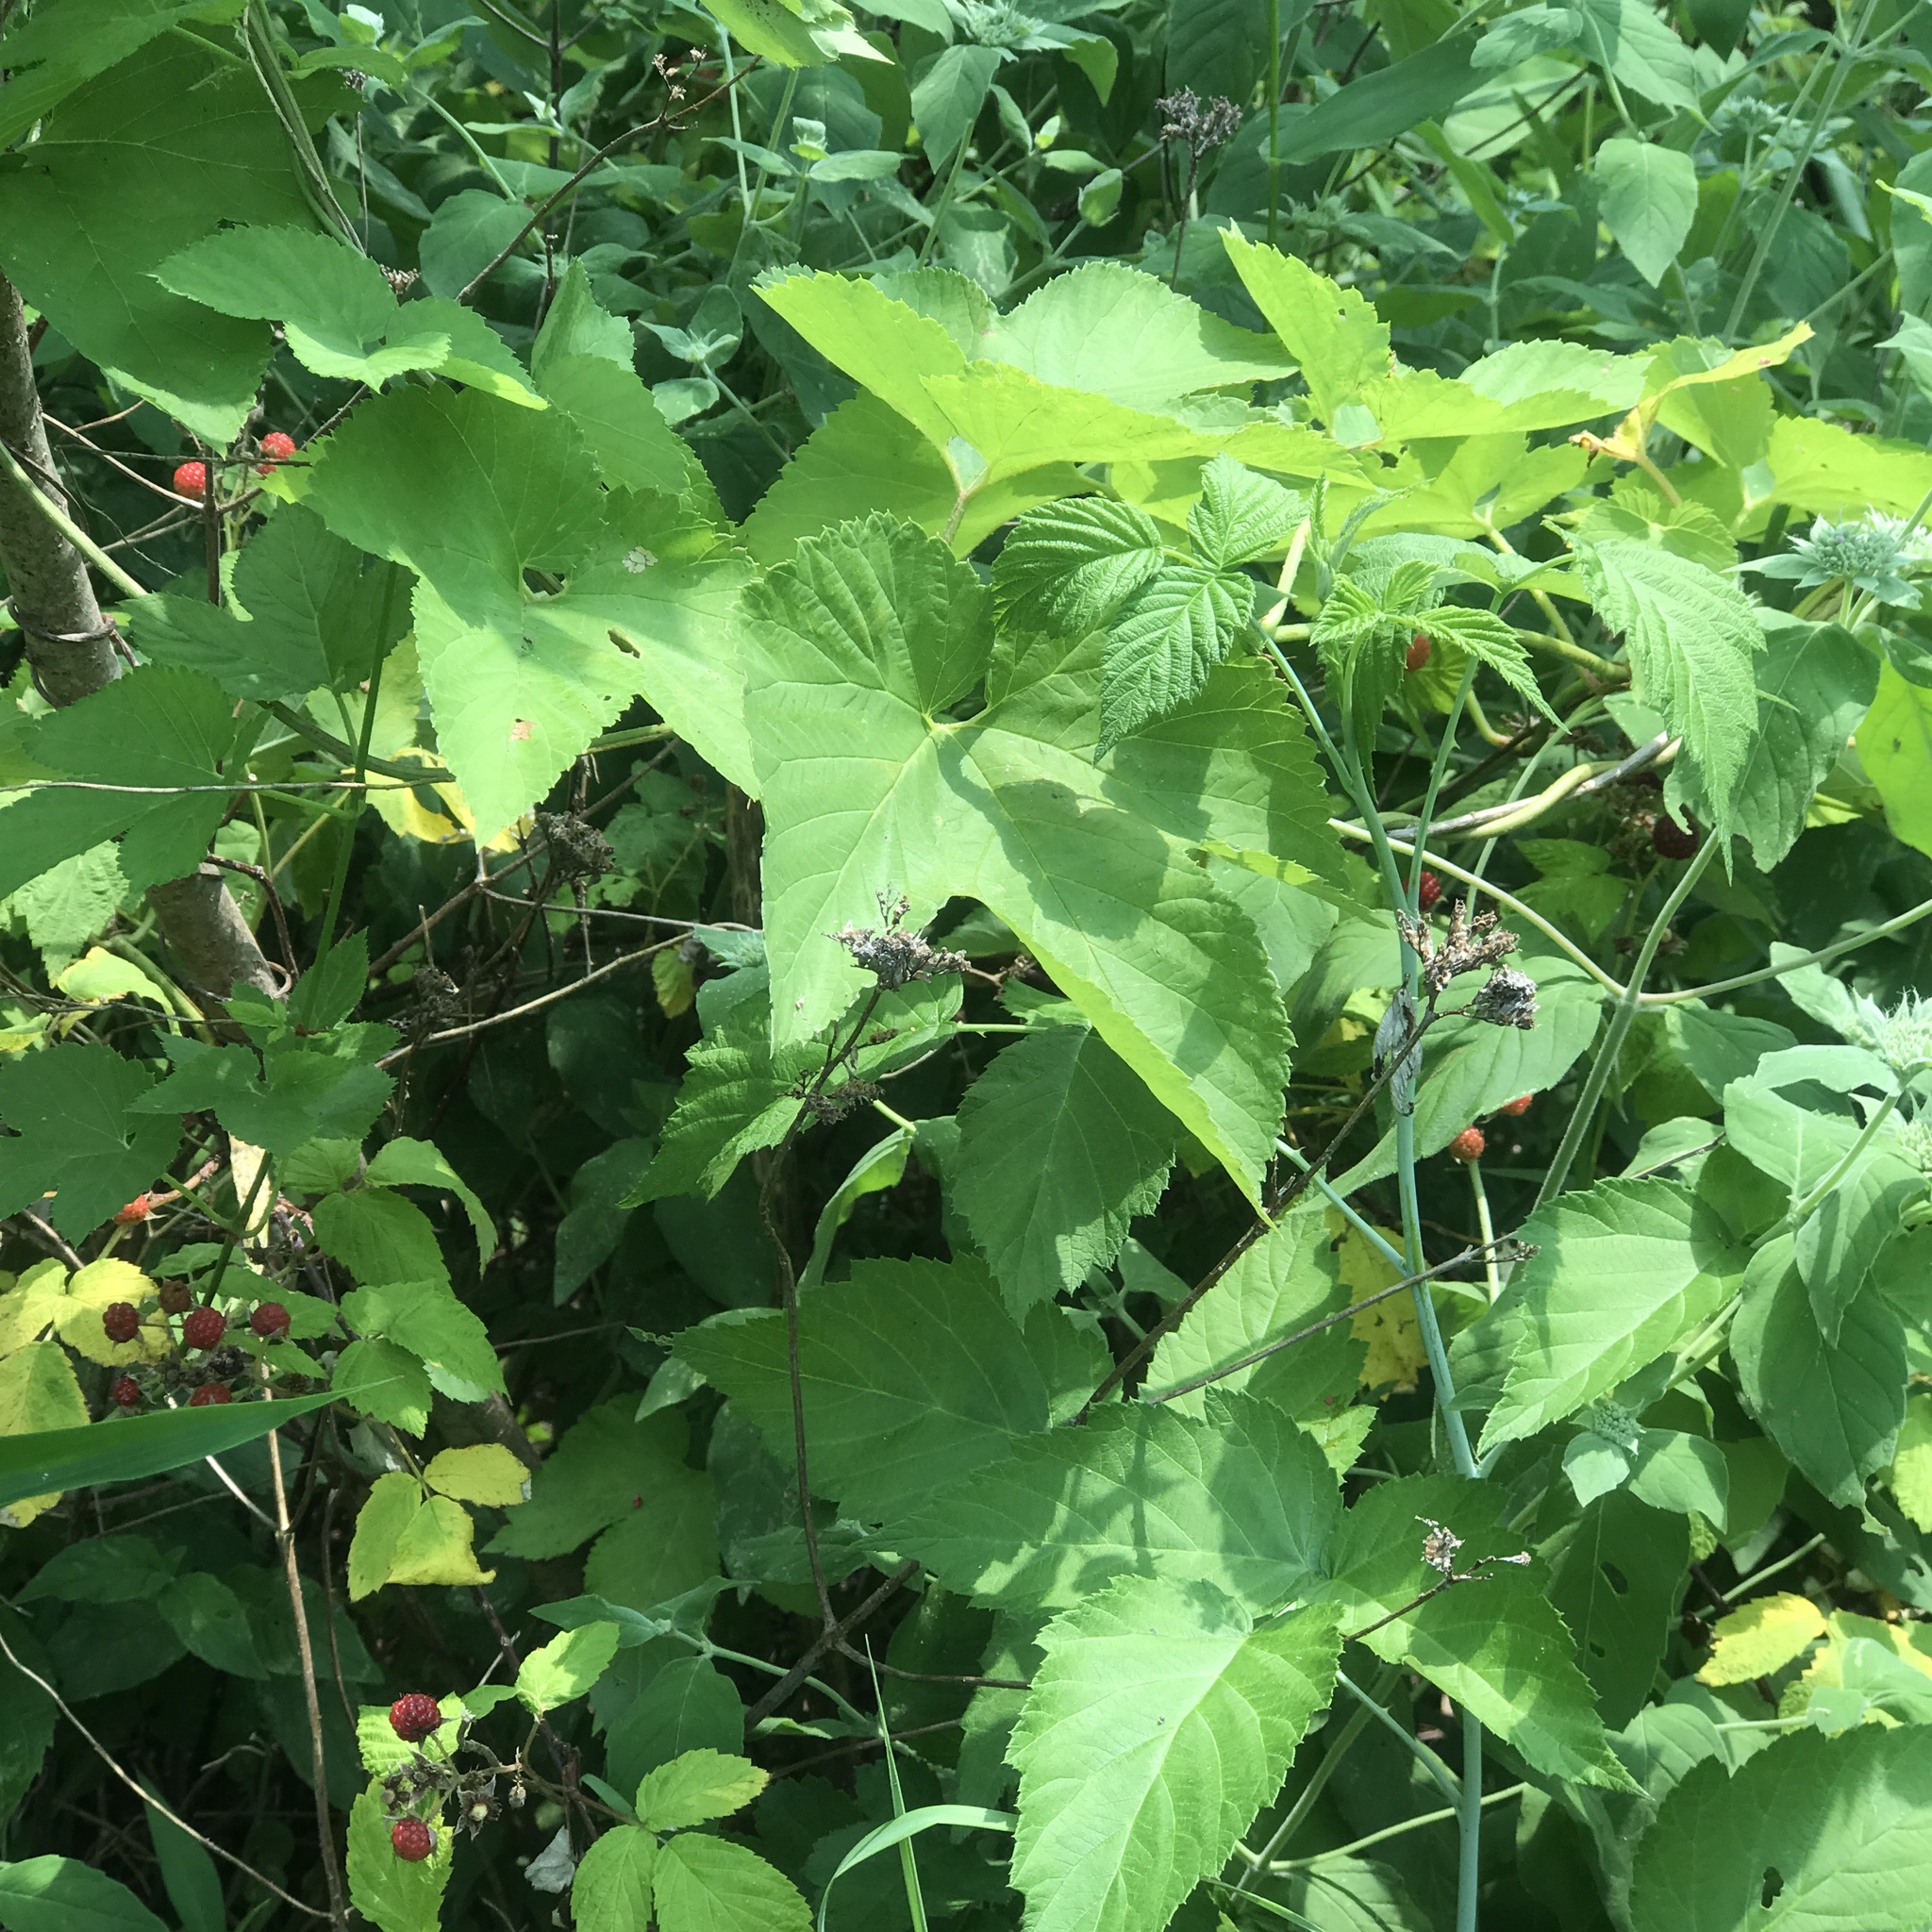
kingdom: Plantae
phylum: Tracheophyta
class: Magnoliopsida
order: Rosales
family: Cannabaceae
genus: Humulus
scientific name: Humulus lupulus
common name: Hop
